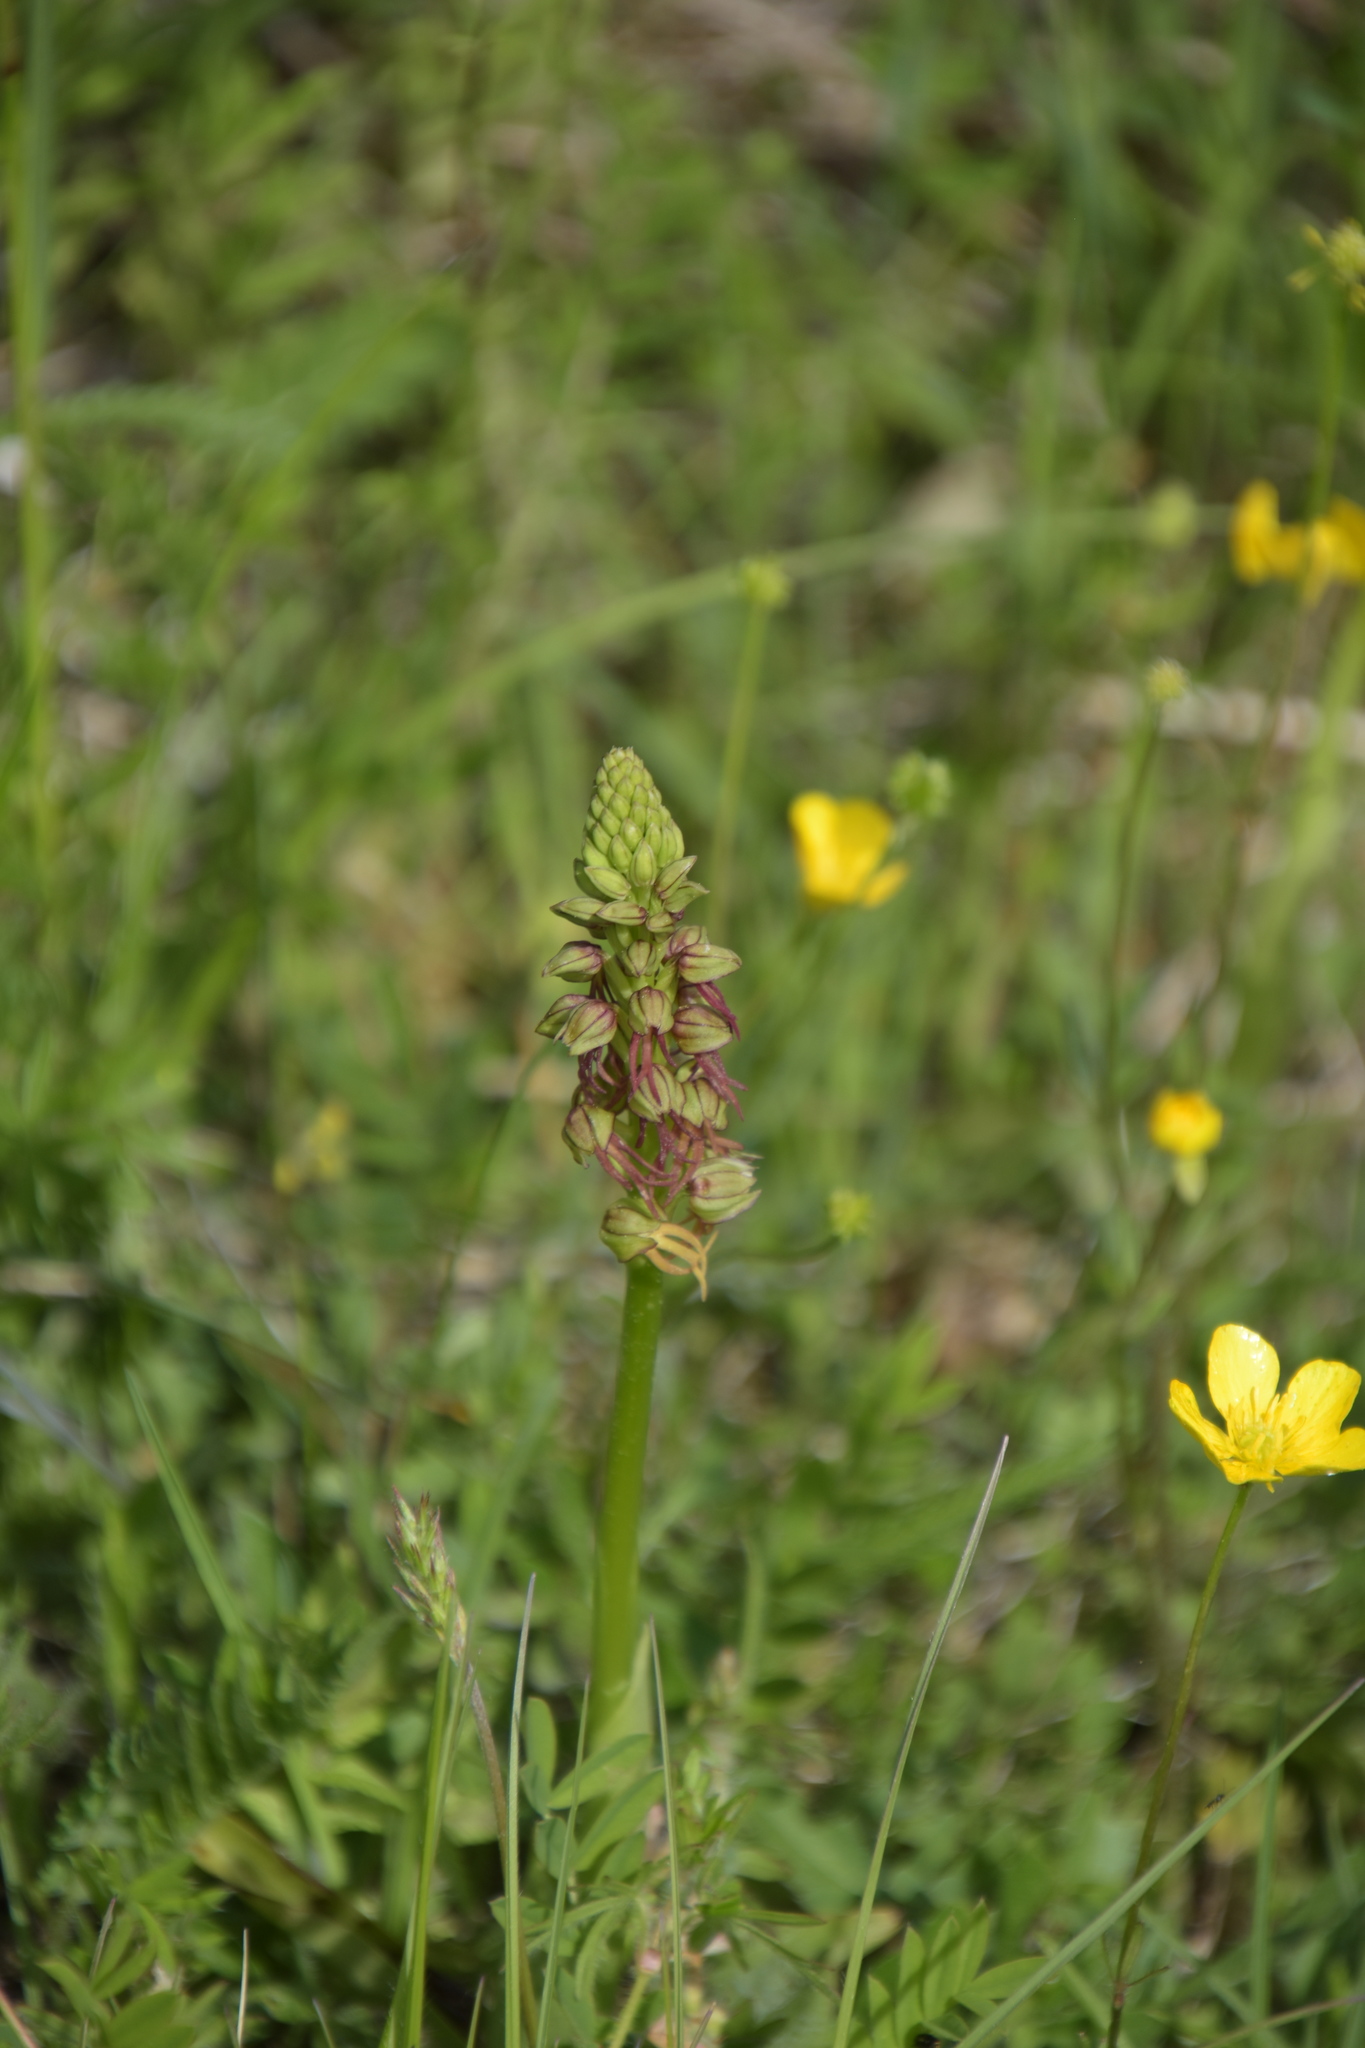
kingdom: Plantae
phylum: Tracheophyta
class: Liliopsida
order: Asparagales
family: Orchidaceae
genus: Orchis
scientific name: Orchis anthropophora
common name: Man orchid
